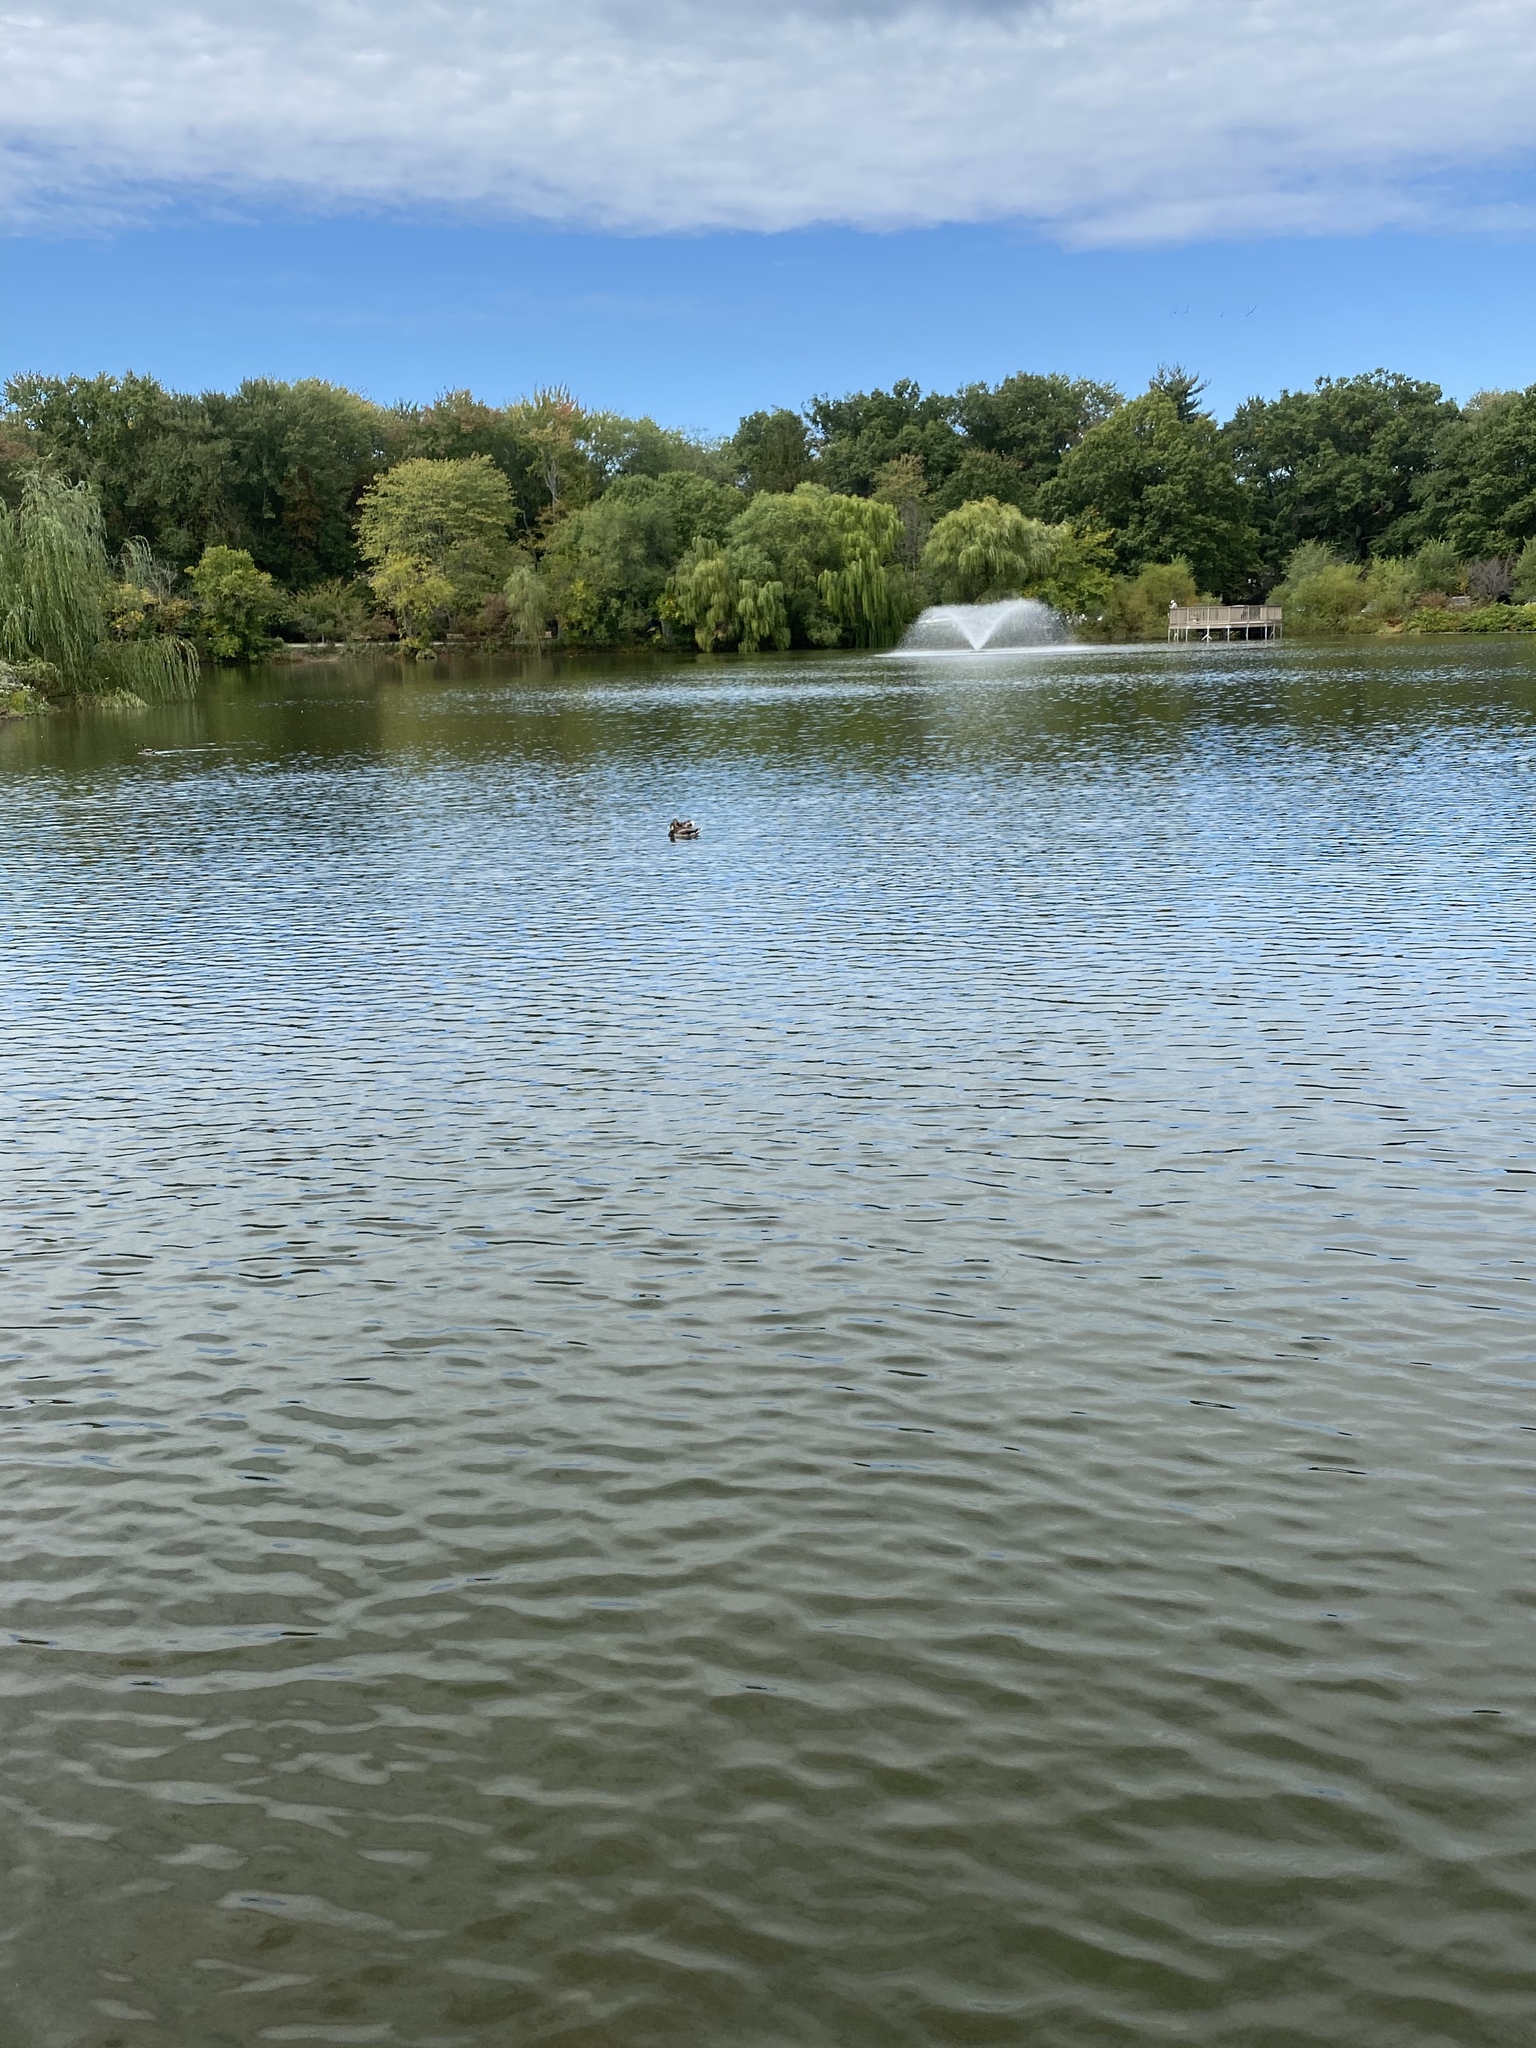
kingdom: Animalia
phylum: Chordata
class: Aves
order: Anseriformes
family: Anatidae
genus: Anas
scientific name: Anas platyrhynchos
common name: Mallard
